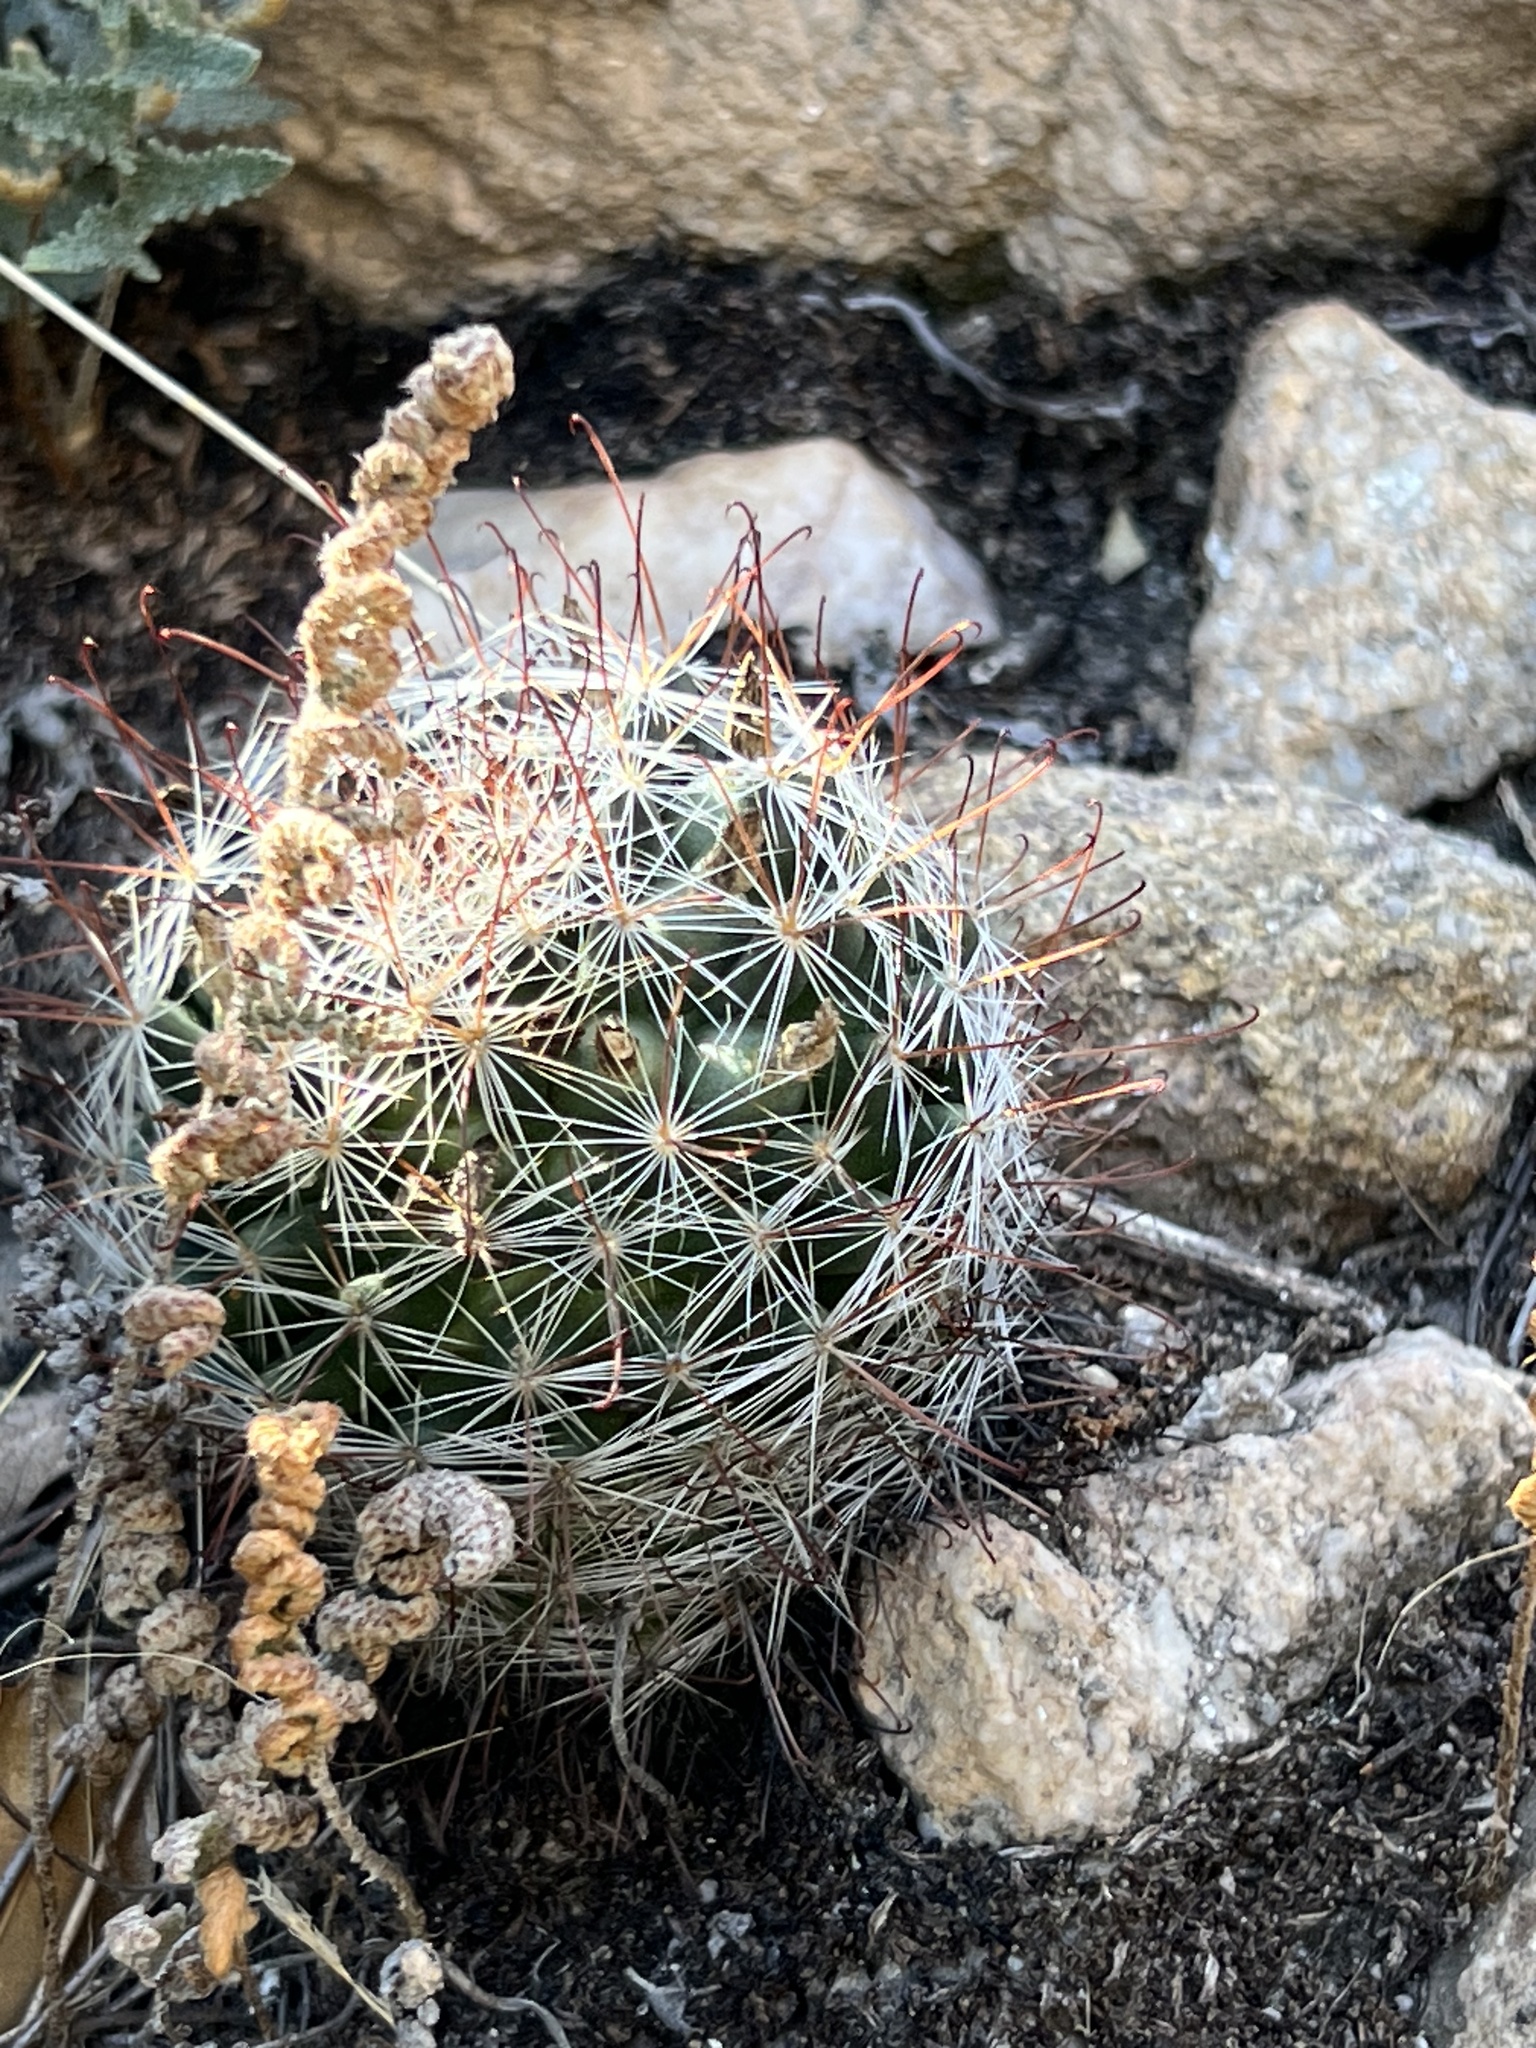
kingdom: Plantae
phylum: Tracheophyta
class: Magnoliopsida
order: Caryophyllales
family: Cactaceae
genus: Cochemiea
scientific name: Cochemiea wrightii
